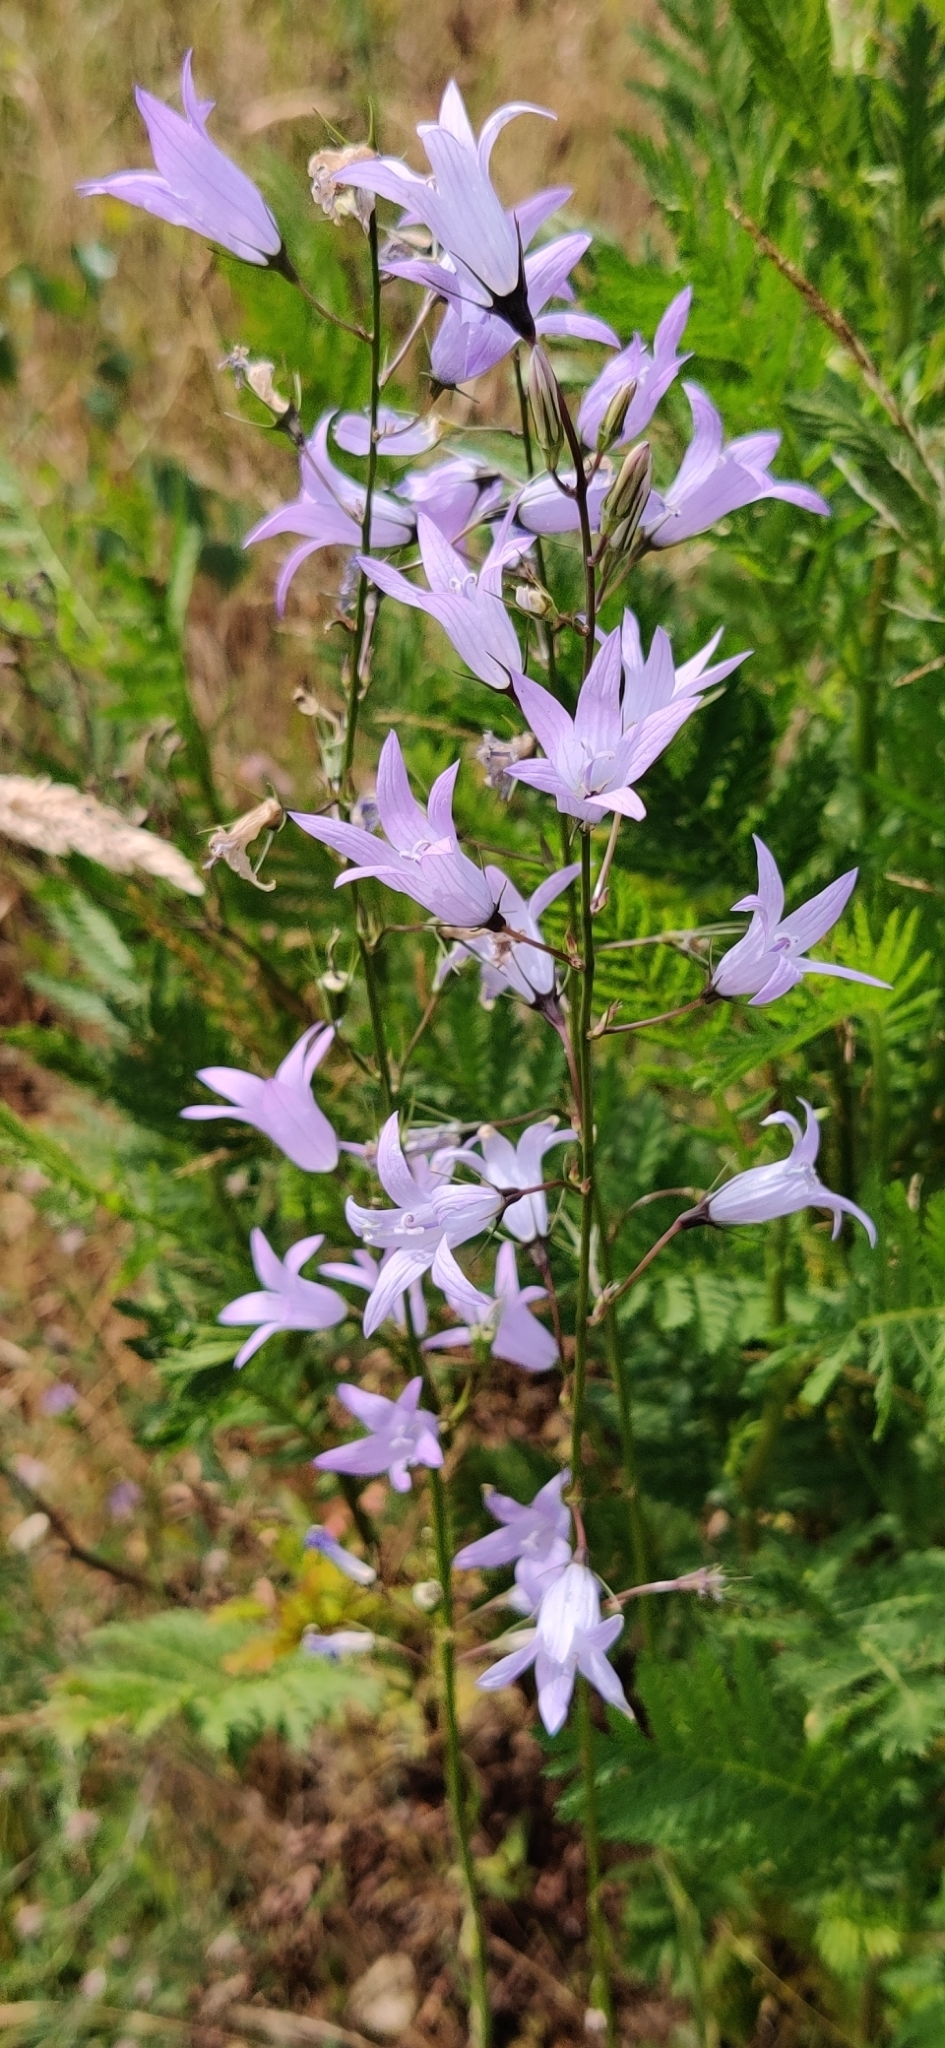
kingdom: Plantae
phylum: Tracheophyta
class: Magnoliopsida
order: Asterales
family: Campanulaceae
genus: Campanula
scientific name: Campanula rapunculus
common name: Rampion bellflower
